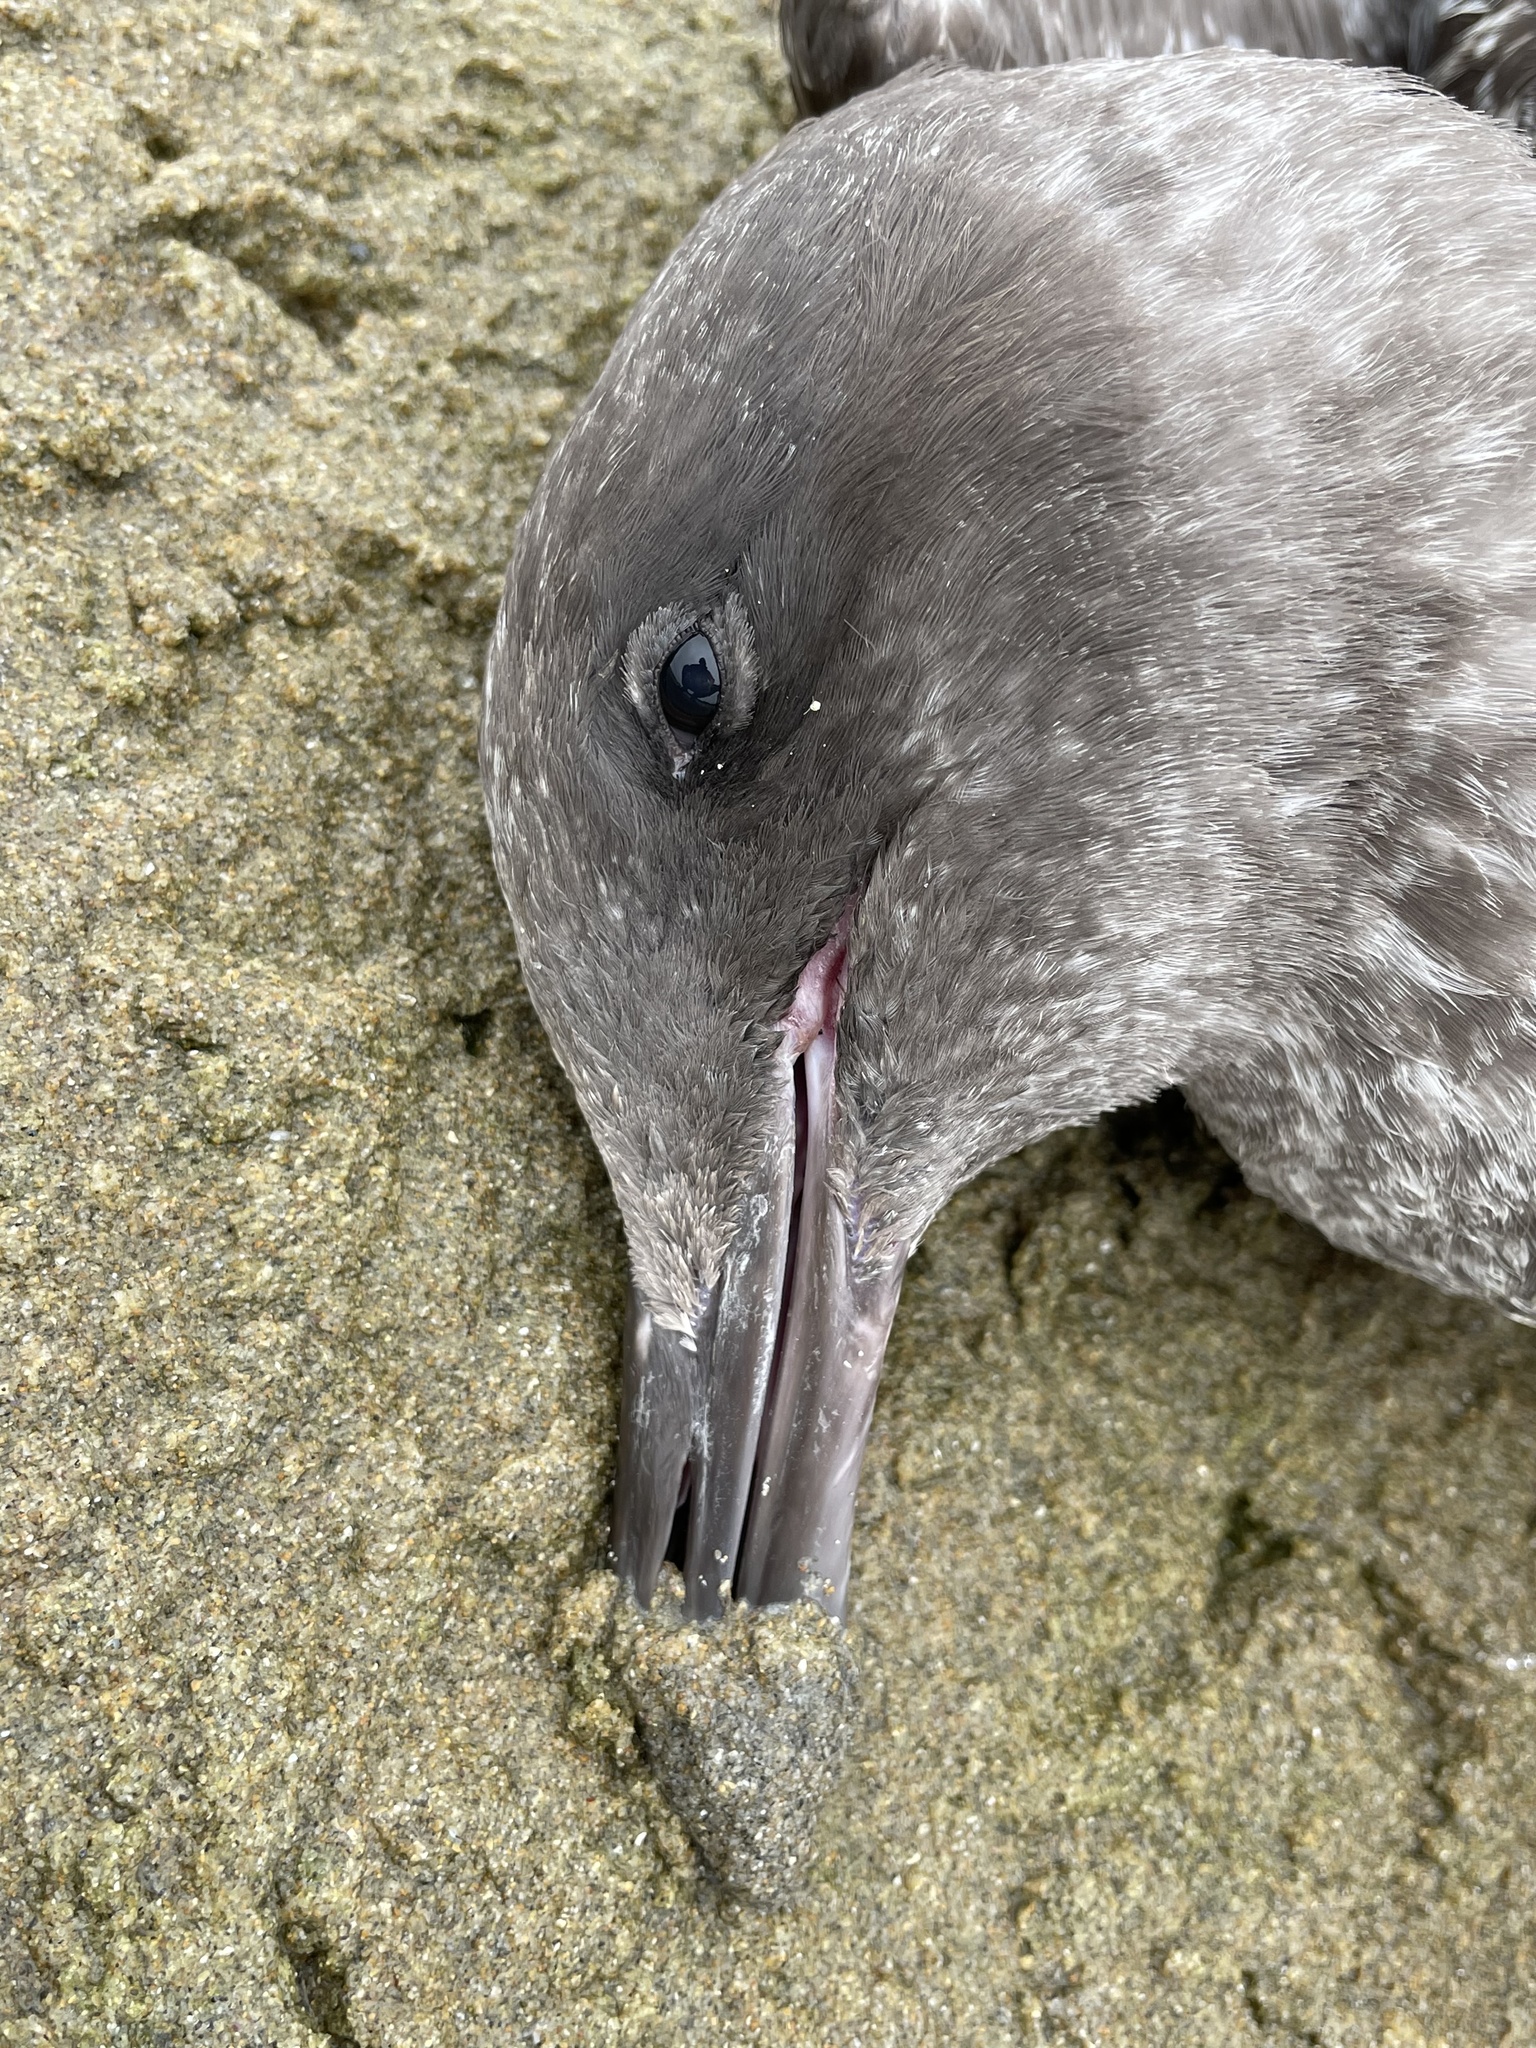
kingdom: Animalia
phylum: Chordata
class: Aves
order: Charadriiformes
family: Laridae
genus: Larus
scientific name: Larus occidentalis
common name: Western gull
